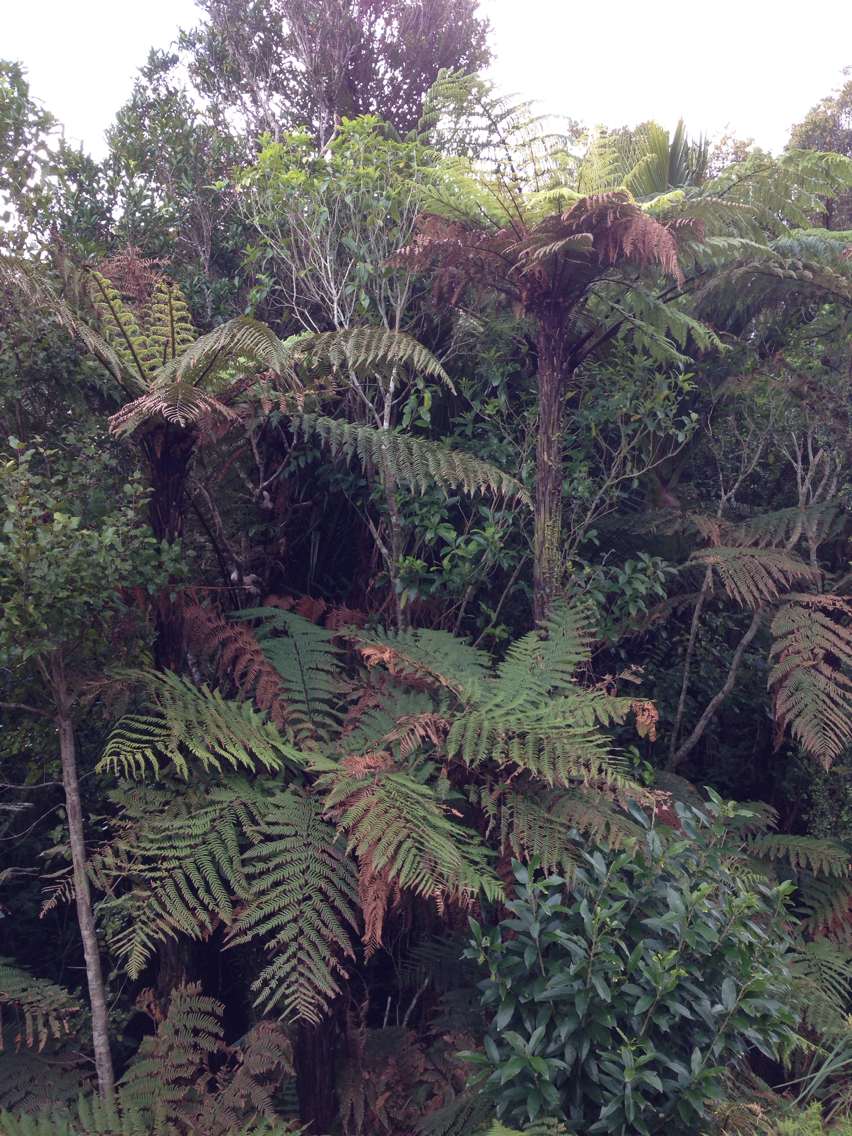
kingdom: Plantae
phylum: Tracheophyta
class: Polypodiopsida
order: Cyatheales
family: Dicksoniaceae
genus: Dicksonia
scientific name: Dicksonia squarrosa
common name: Hard treefern
